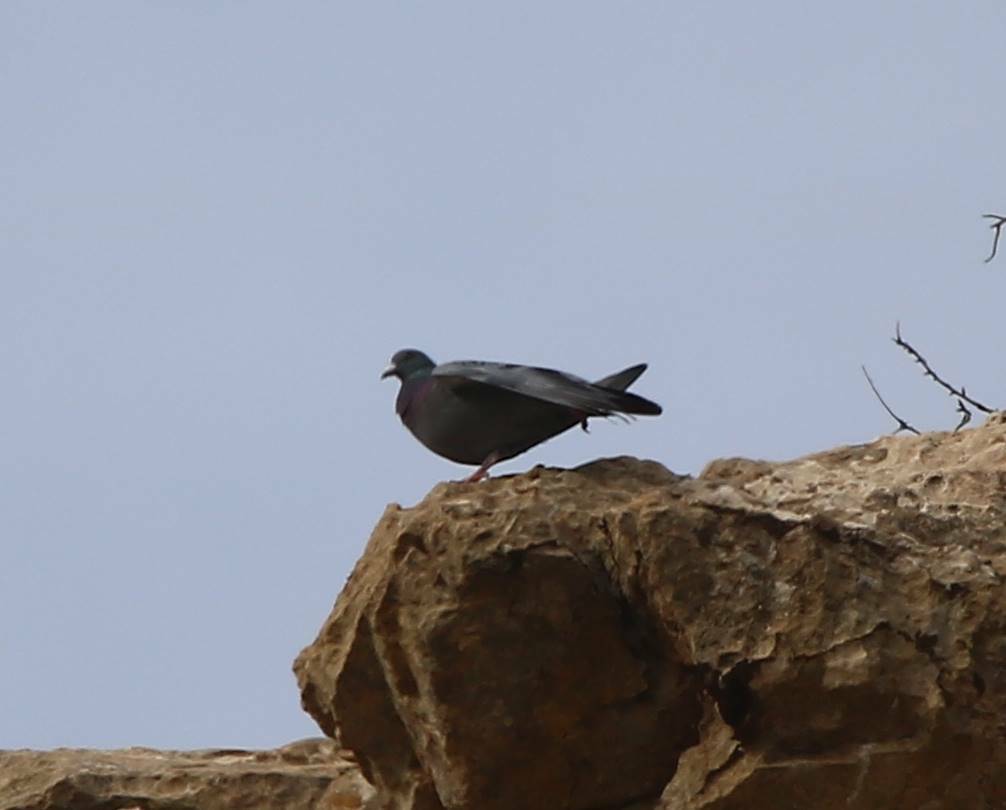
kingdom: Animalia
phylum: Chordata
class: Aves
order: Columbiformes
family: Columbidae
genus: Columba
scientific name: Columba livia
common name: Rock pigeon
